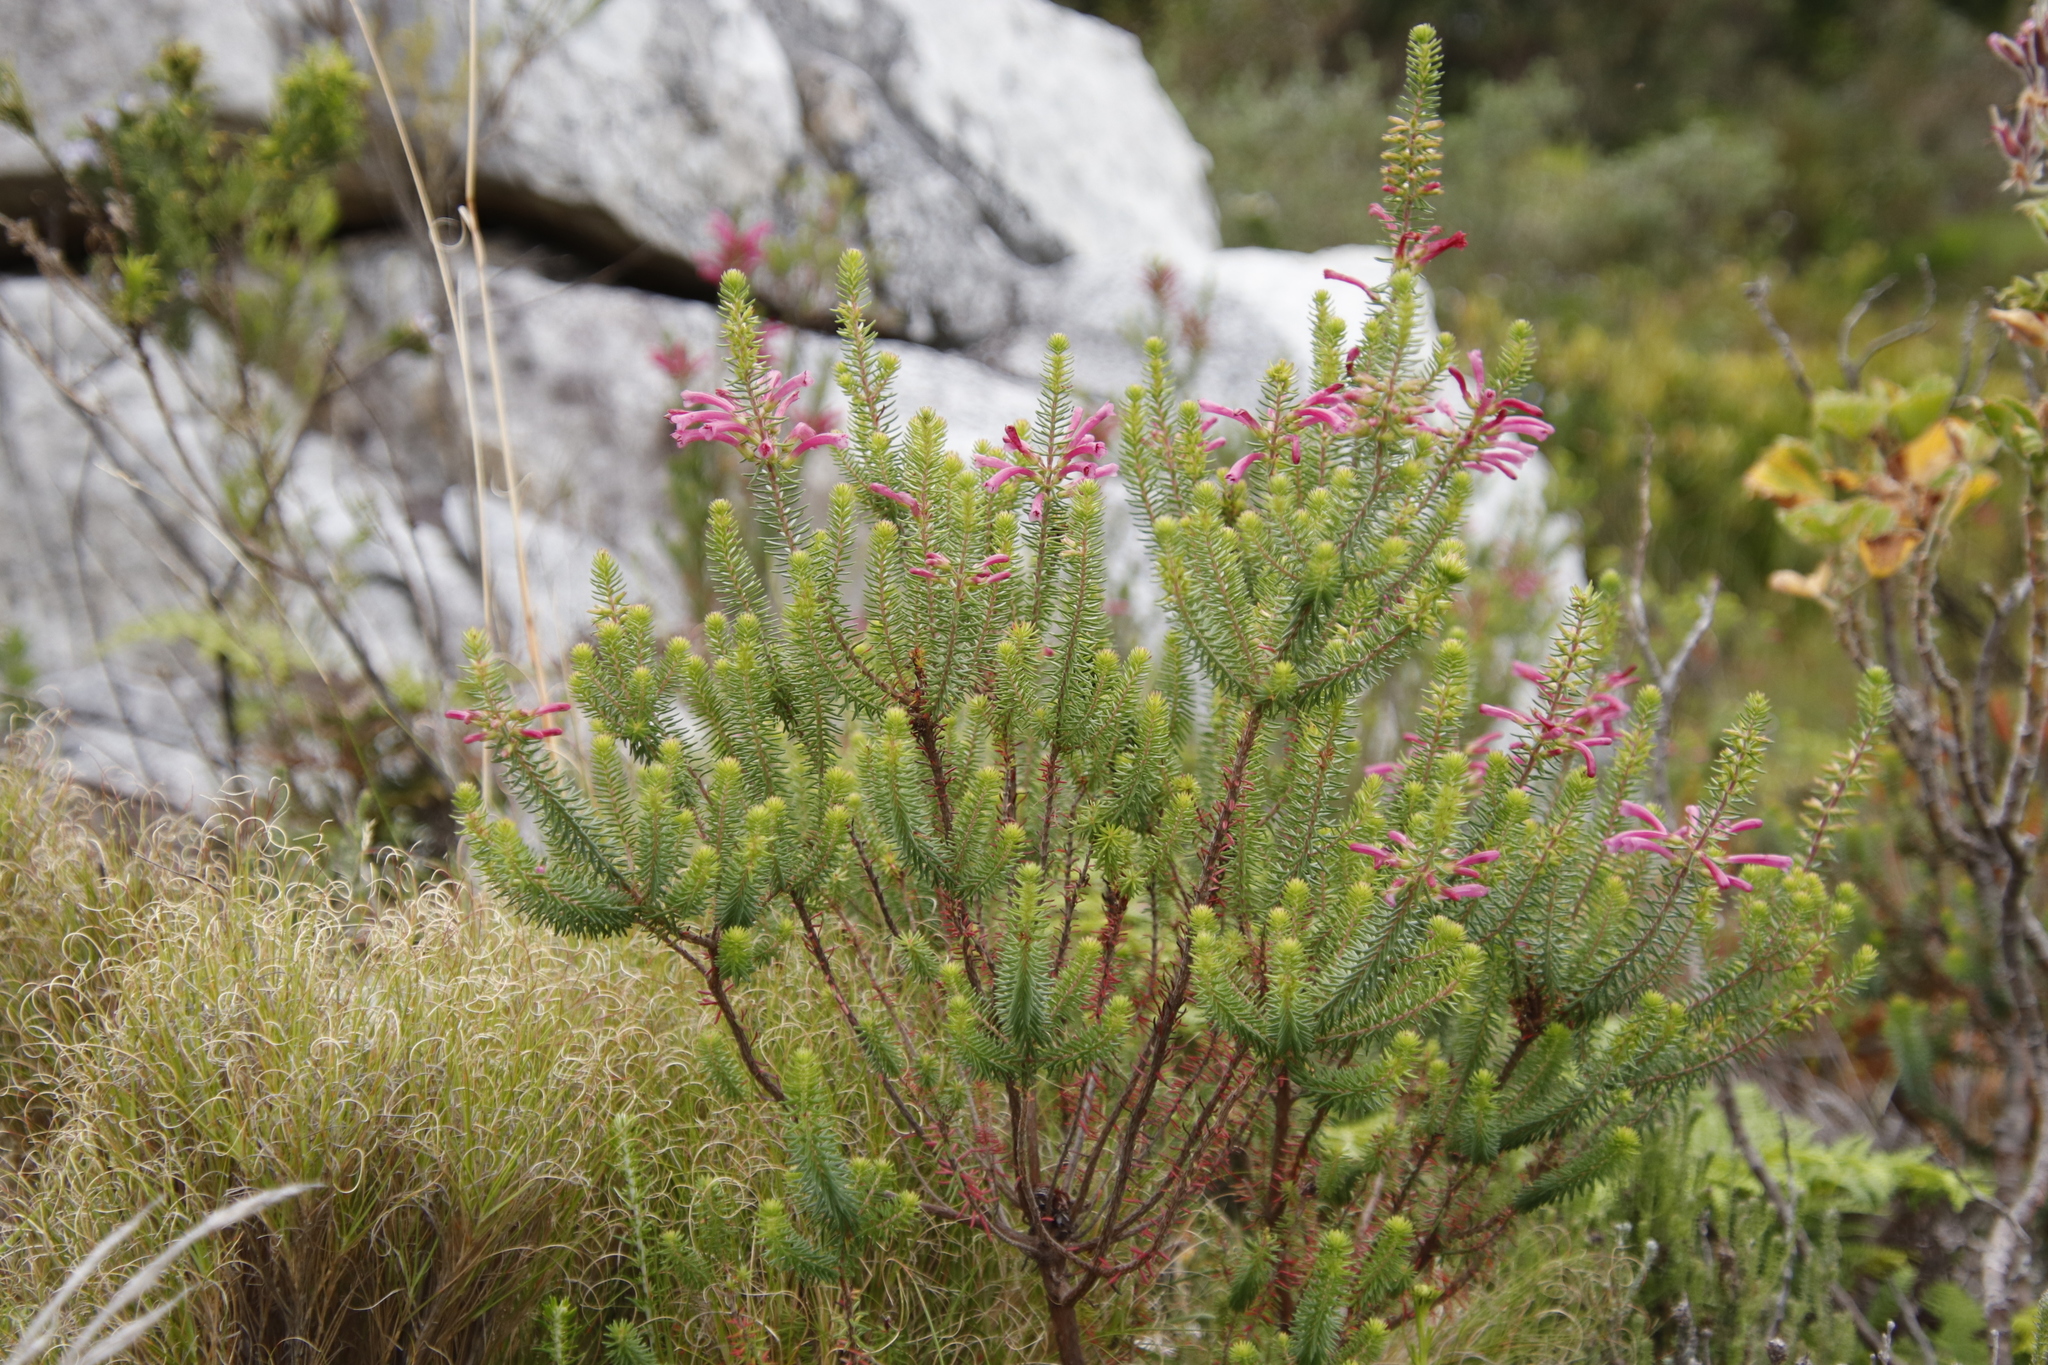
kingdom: Plantae
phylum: Tracheophyta
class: Magnoliopsida
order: Ericales
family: Ericaceae
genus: Erica
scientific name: Erica abietina
